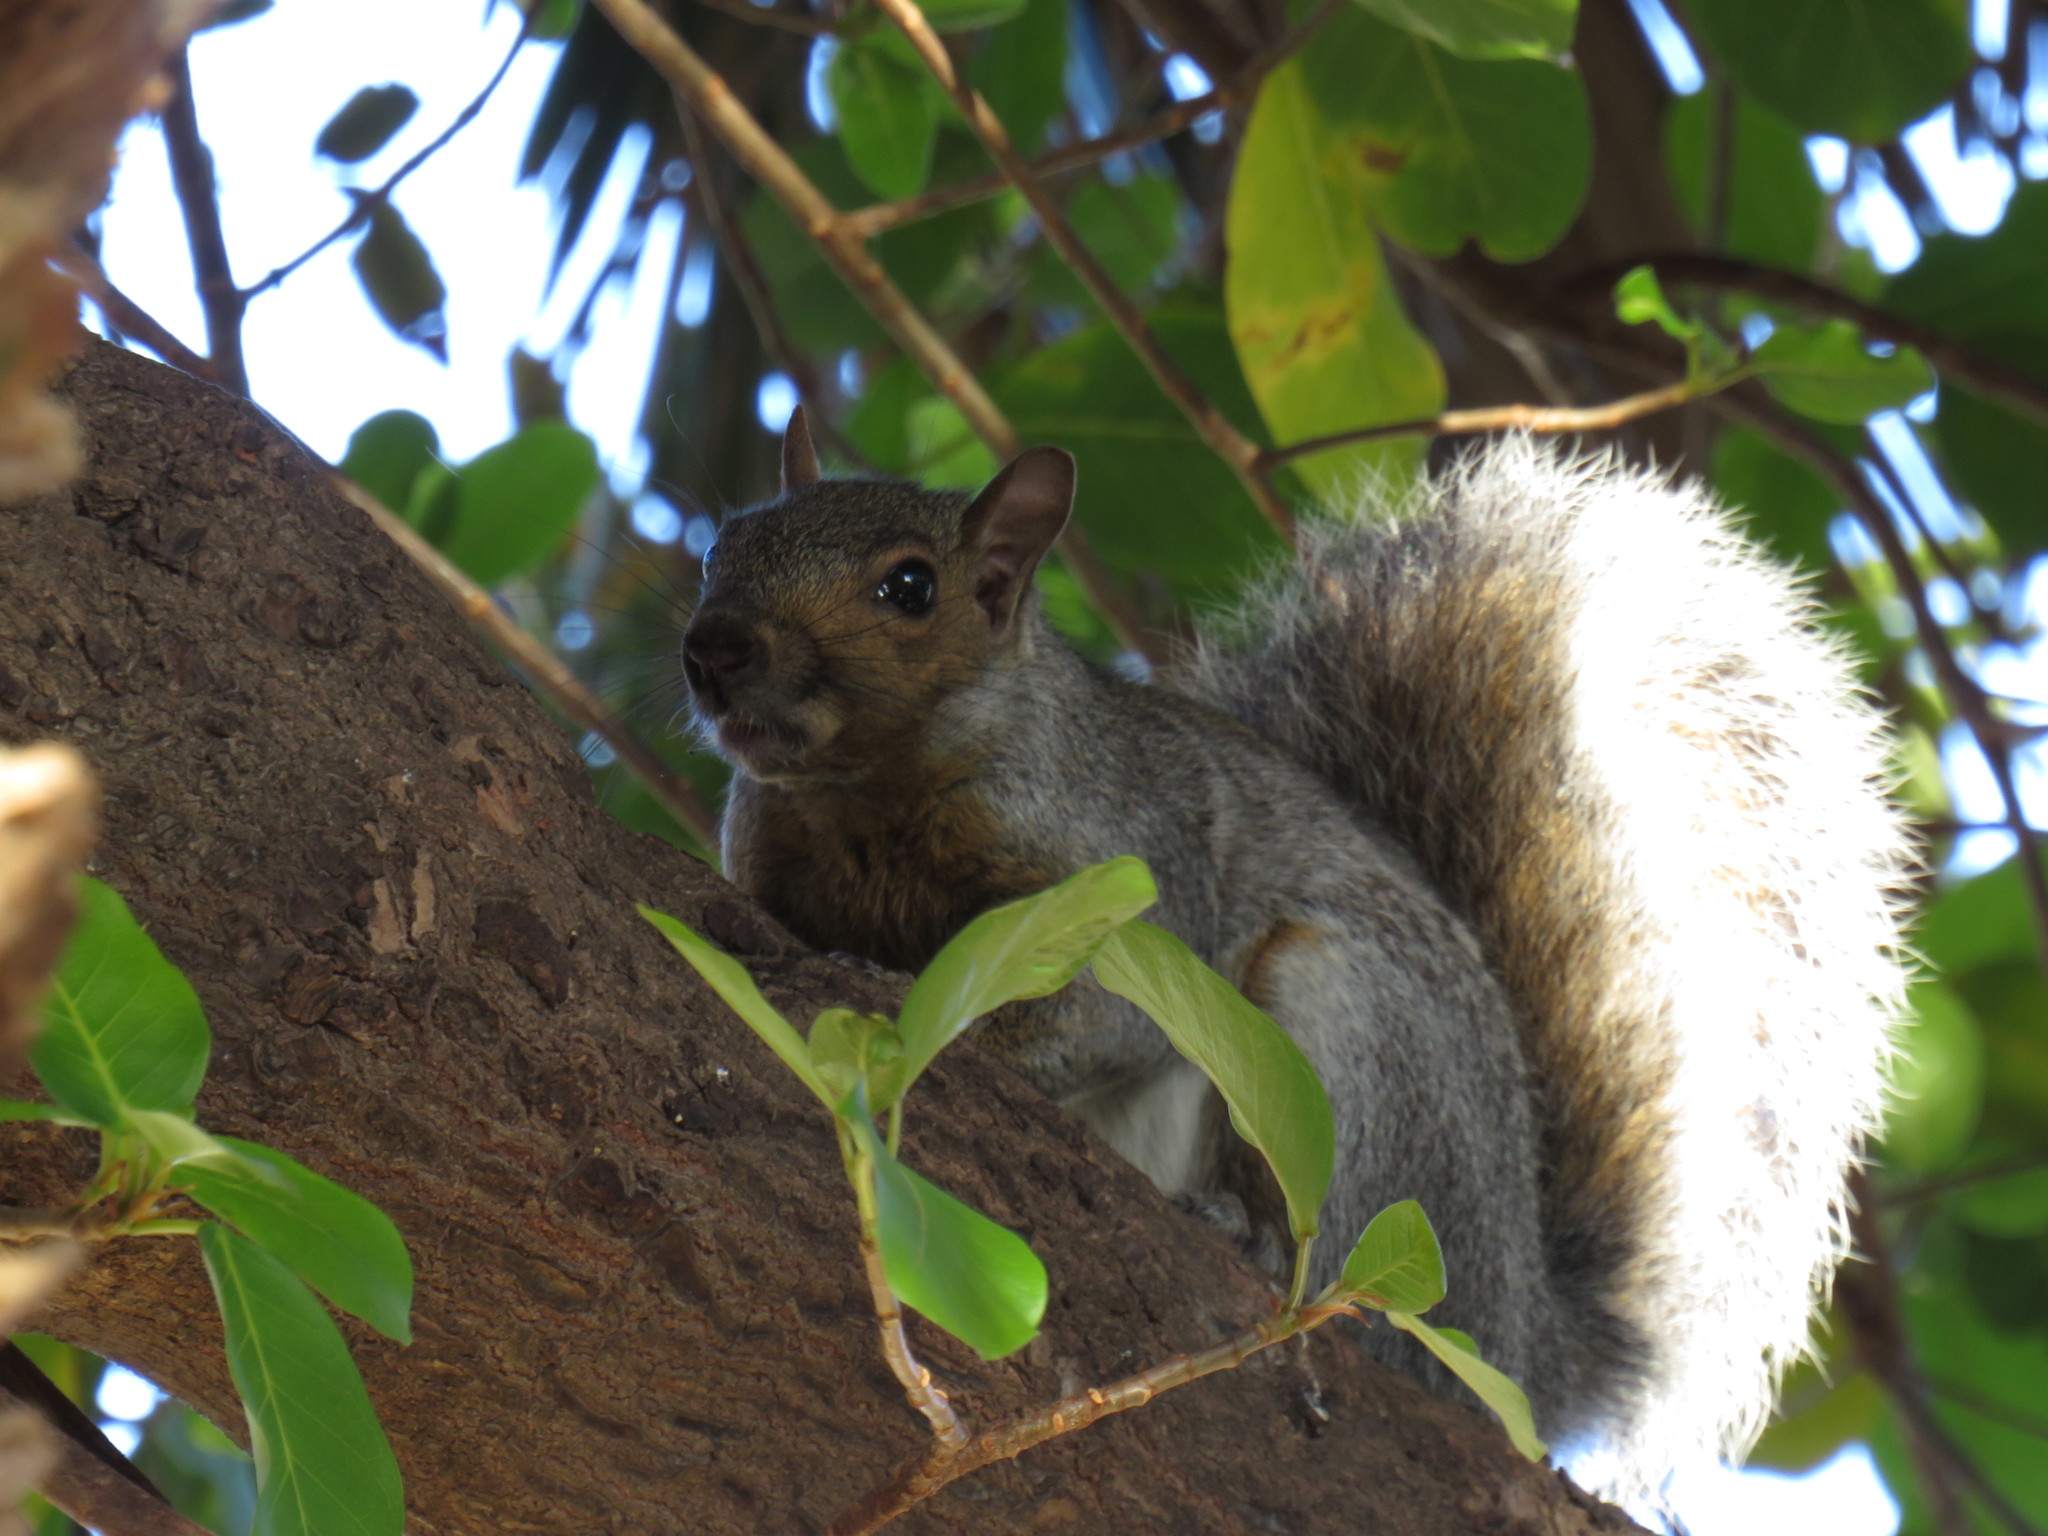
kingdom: Animalia
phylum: Chordata
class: Mammalia
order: Rodentia
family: Sciuridae
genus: Sciurus
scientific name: Sciurus carolinensis
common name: Eastern gray squirrel
